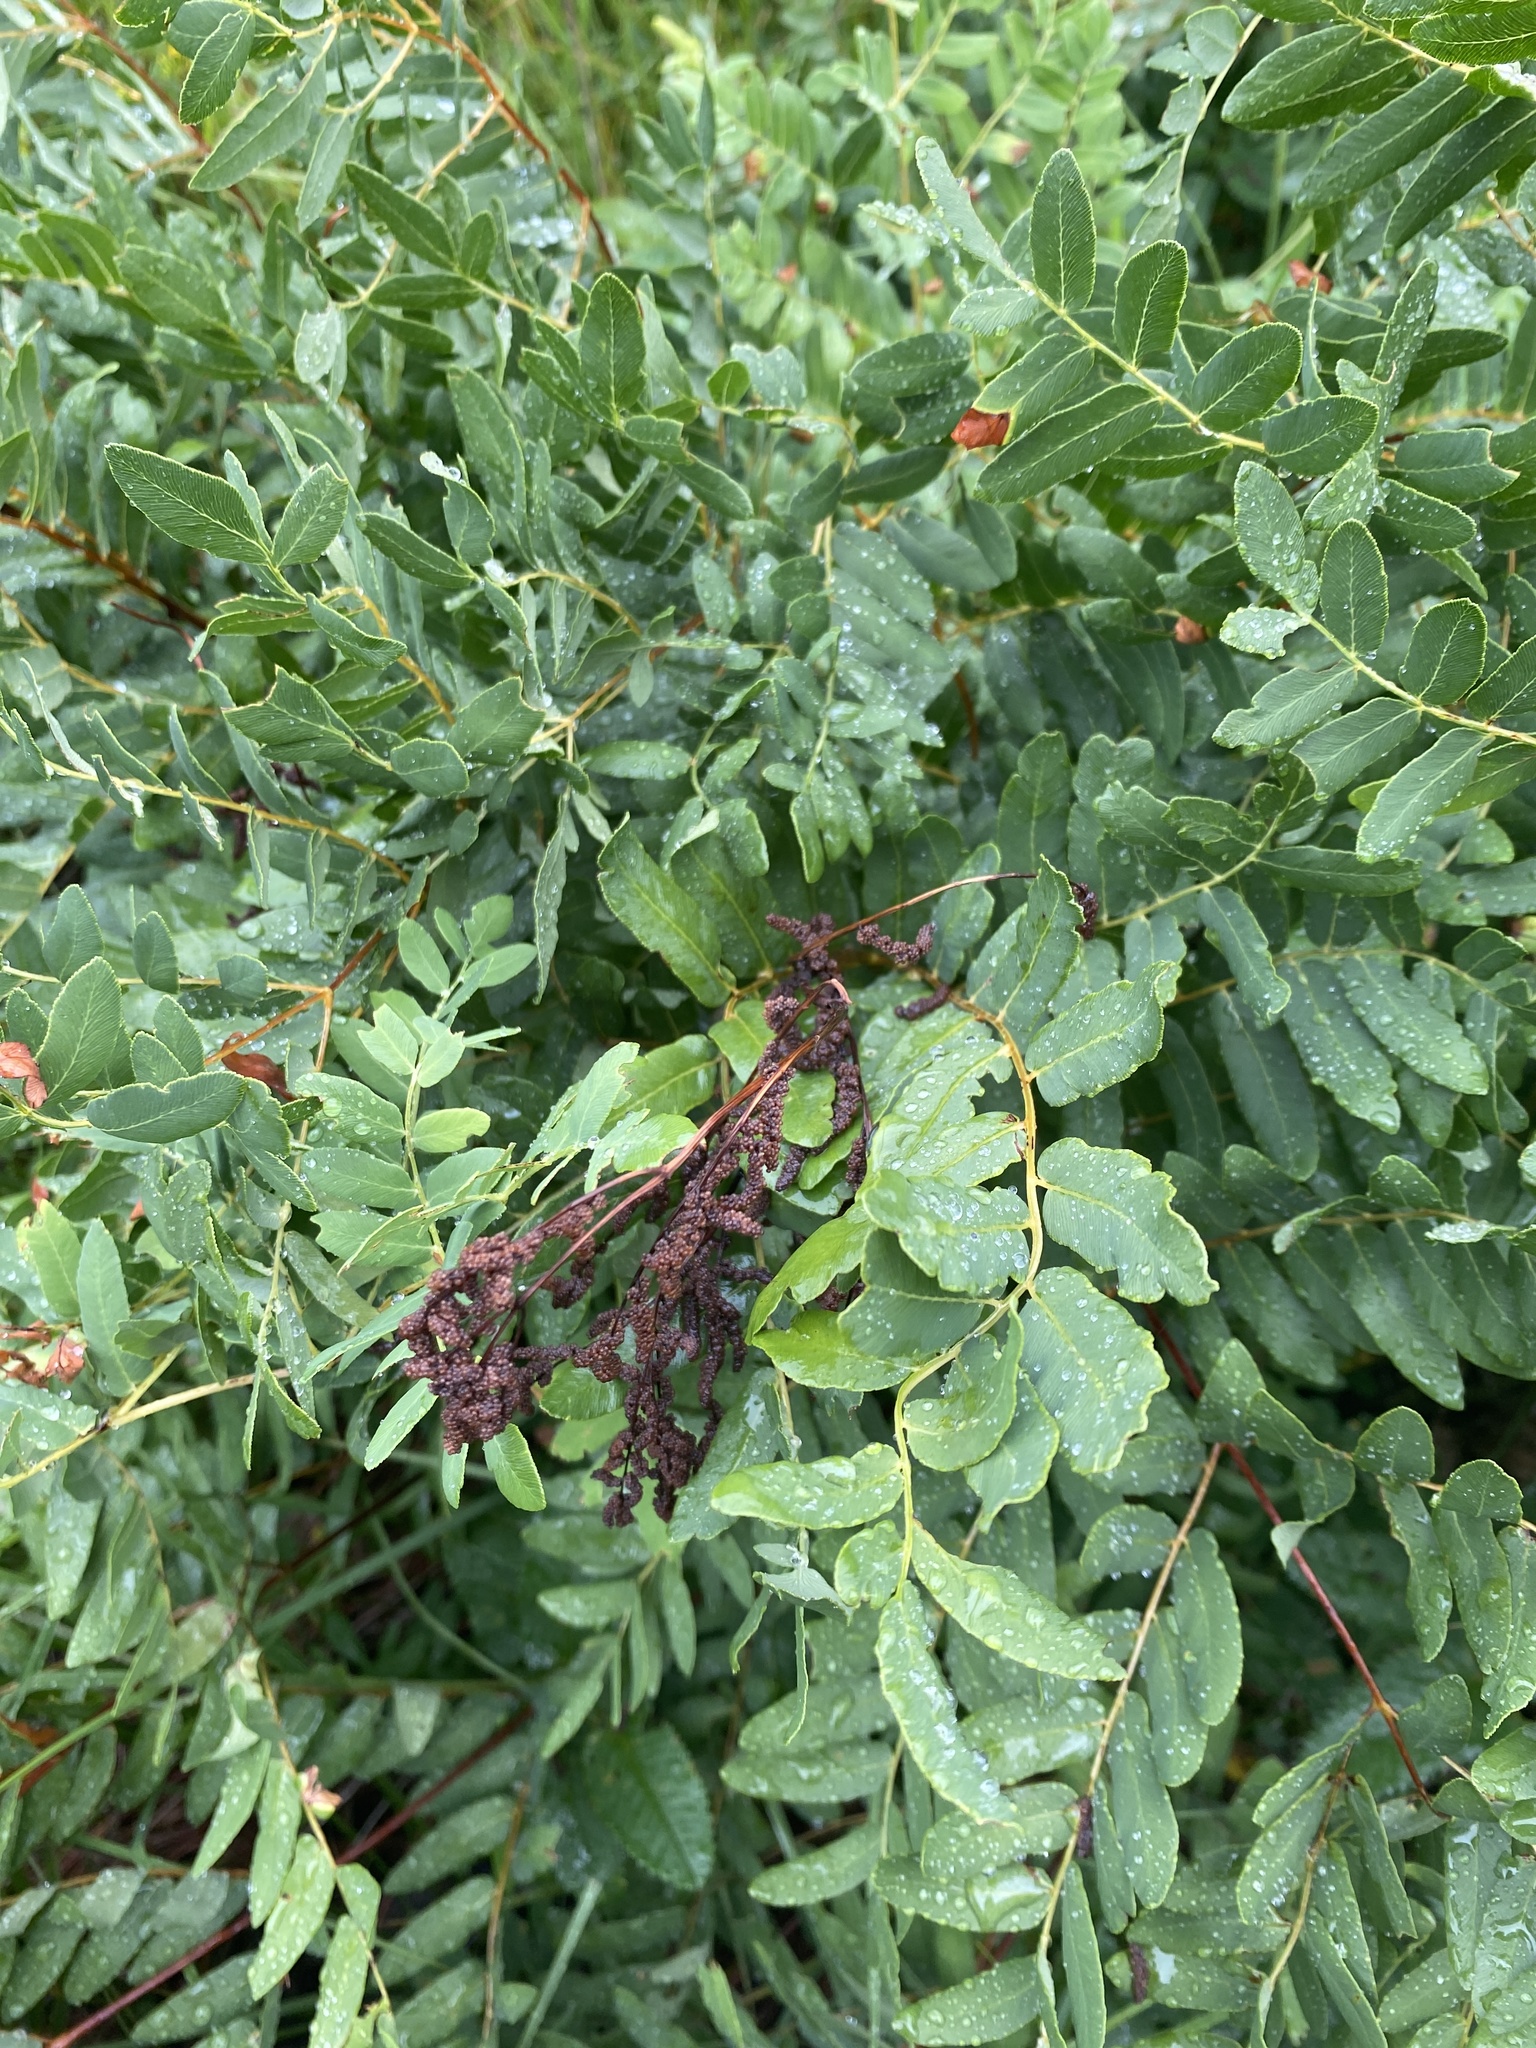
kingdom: Plantae
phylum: Tracheophyta
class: Polypodiopsida
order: Osmundales
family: Osmundaceae
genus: Osmunda
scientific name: Osmunda spectabilis
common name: American royal fern
